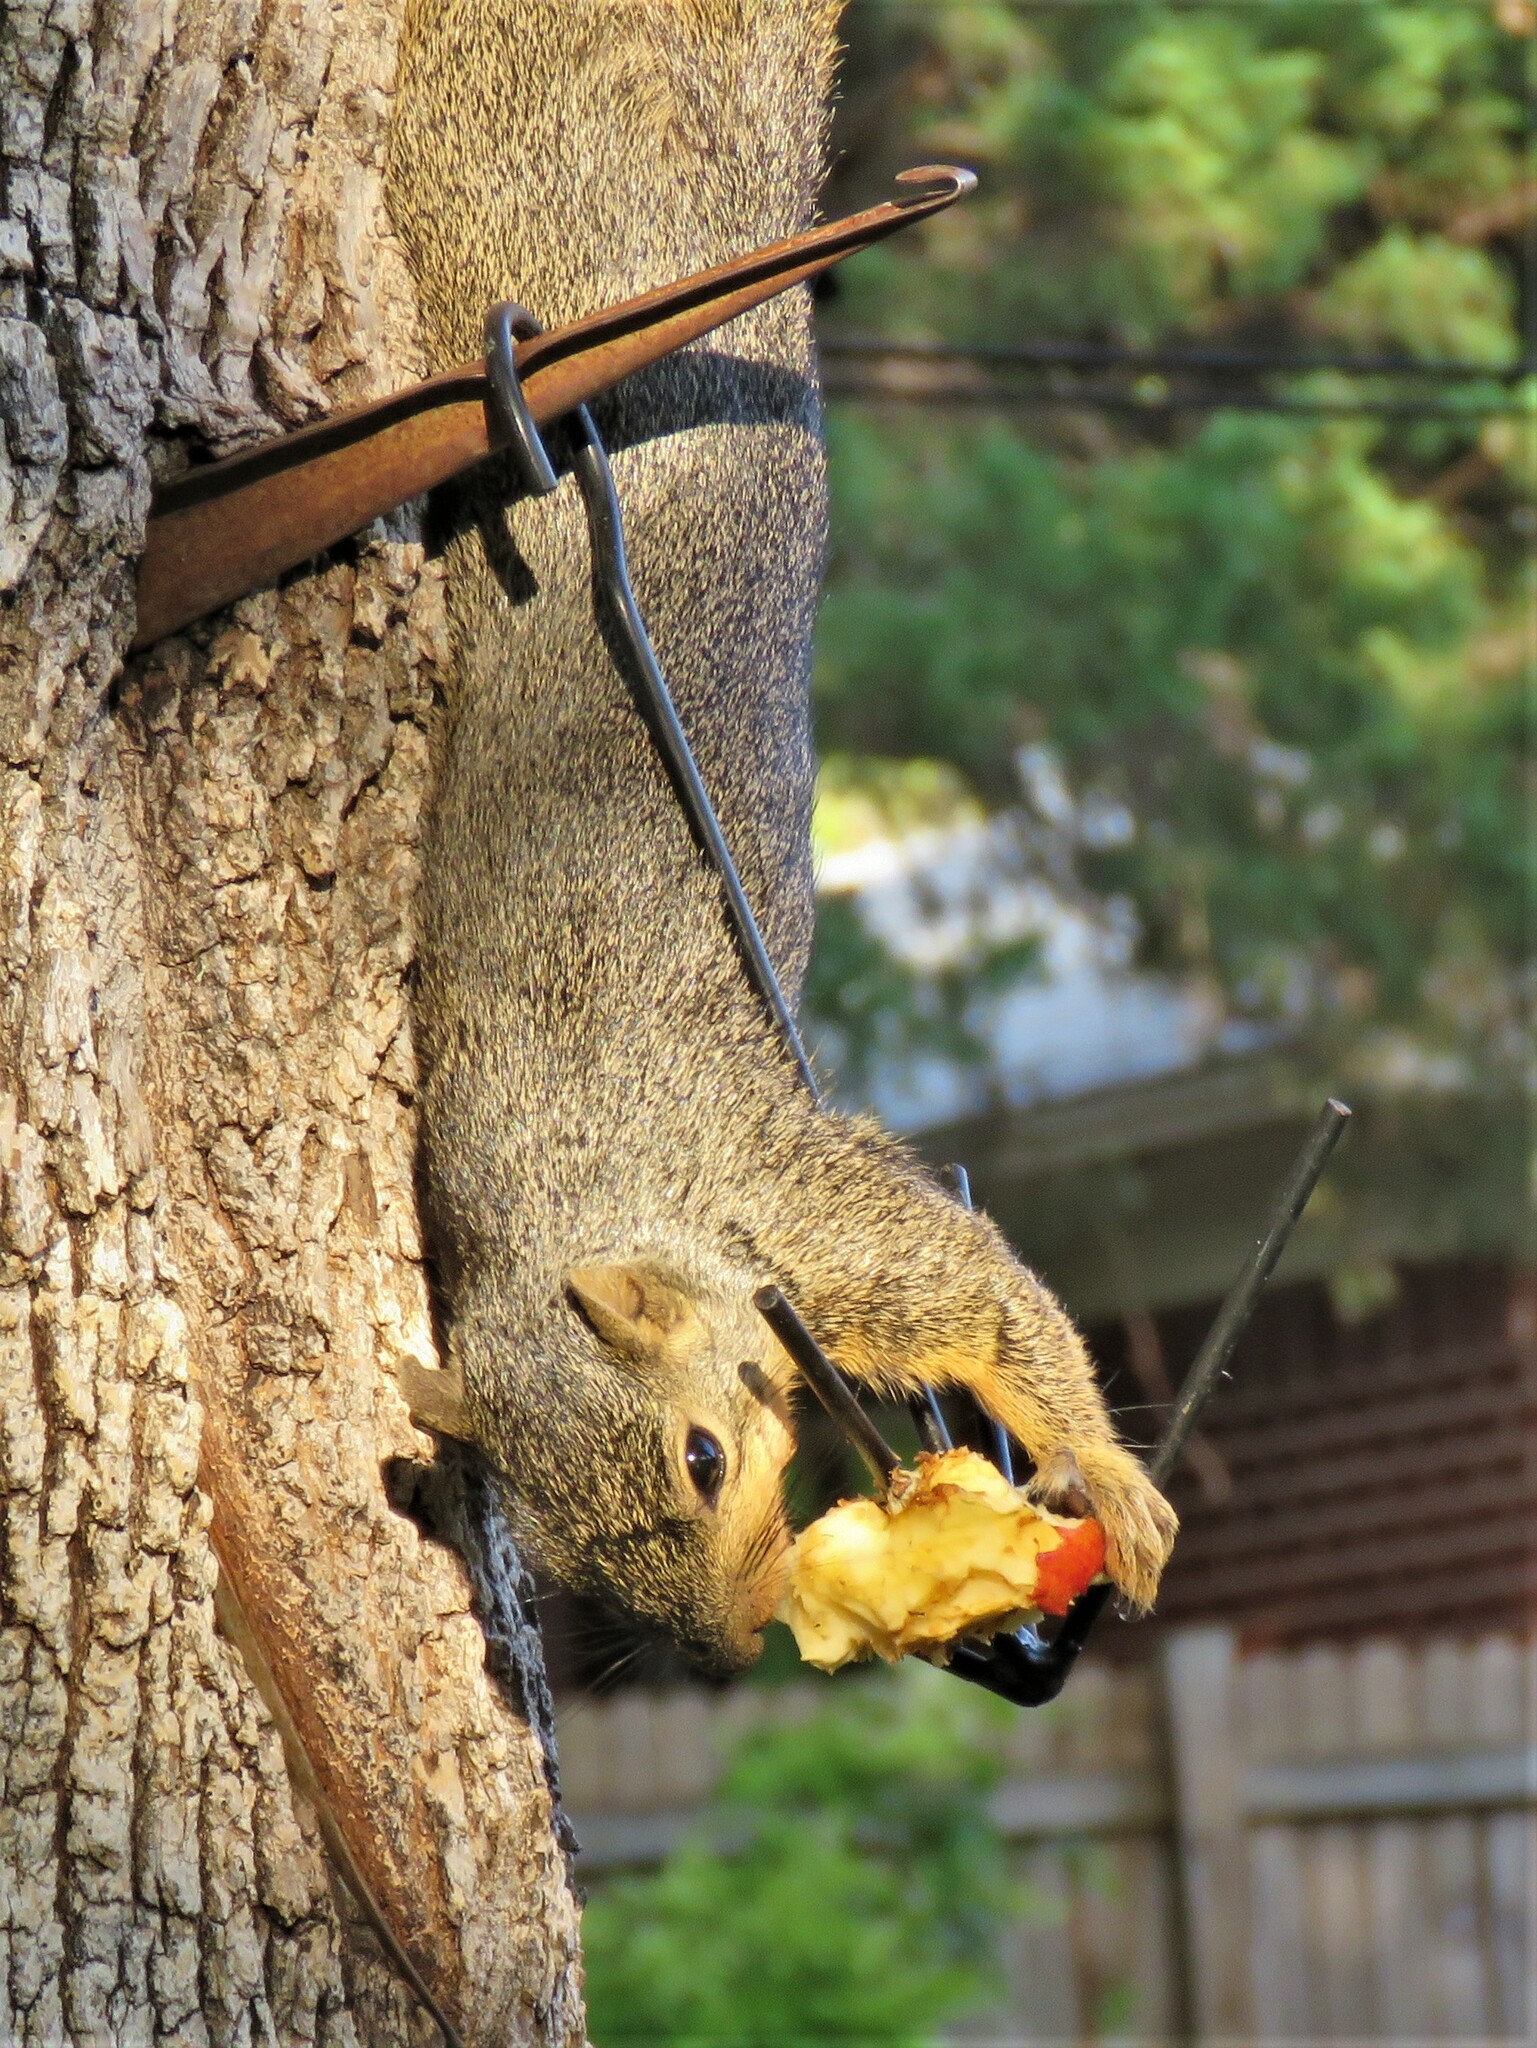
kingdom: Animalia
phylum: Chordata
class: Mammalia
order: Rodentia
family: Sciuridae
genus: Sciurus
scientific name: Sciurus niger
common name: Fox squirrel
